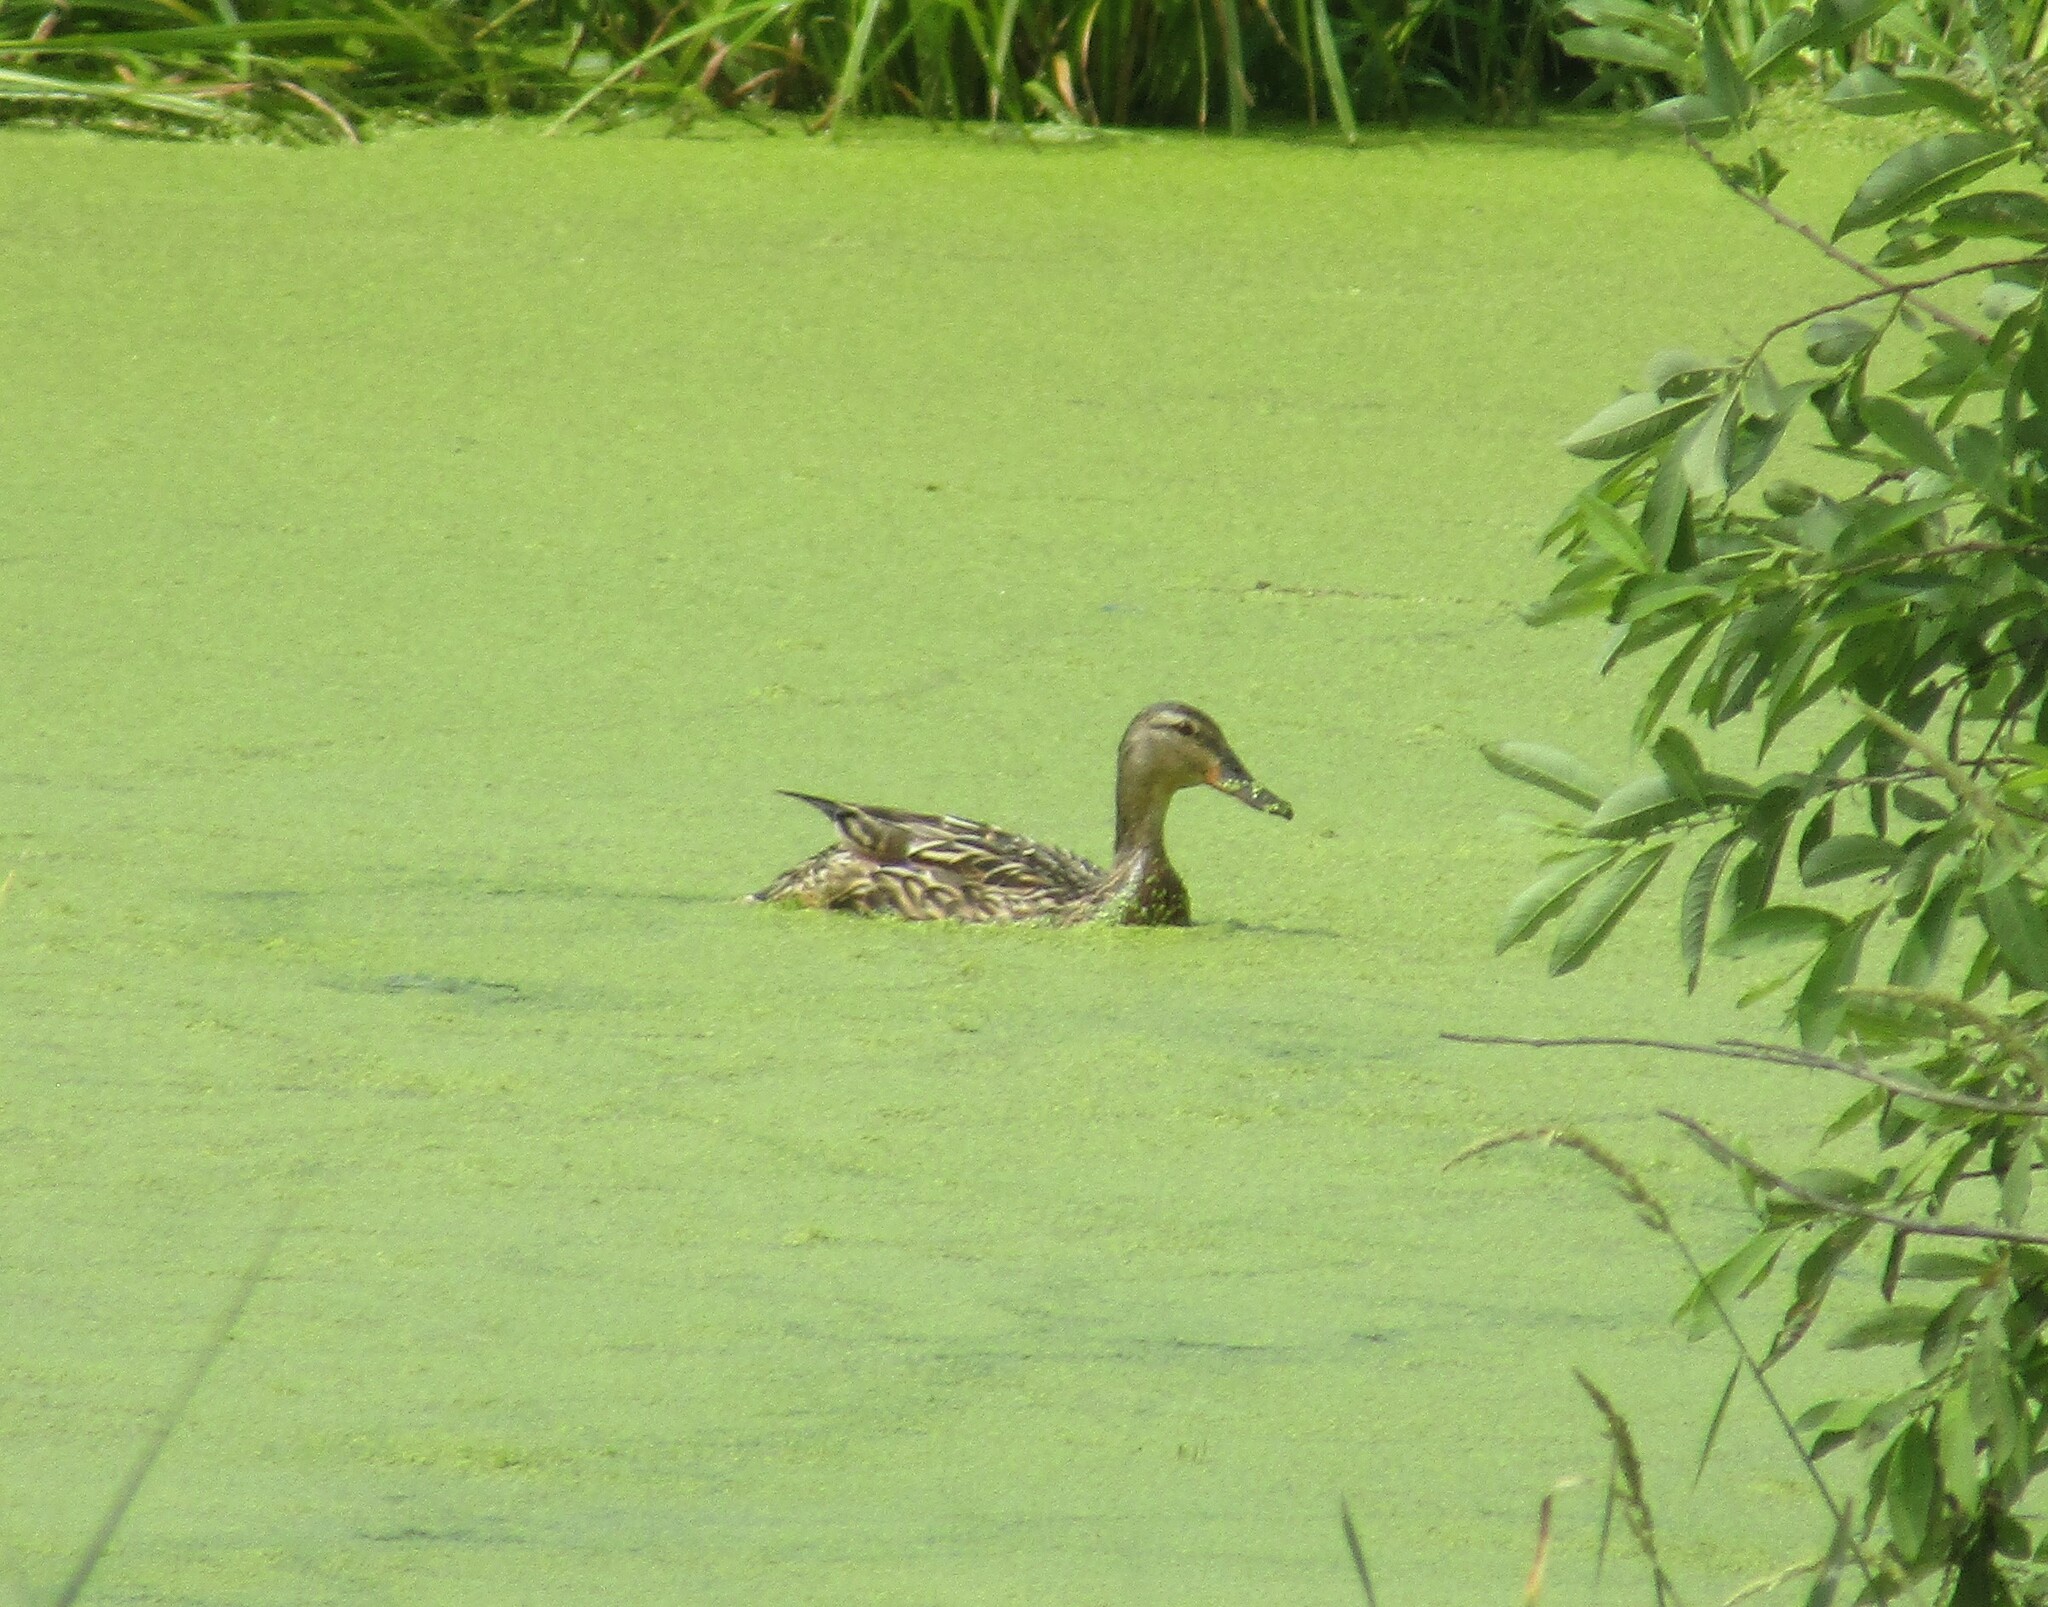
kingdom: Animalia
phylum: Chordata
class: Aves
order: Anseriformes
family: Anatidae
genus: Anas
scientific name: Anas platyrhynchos
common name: Mallard
